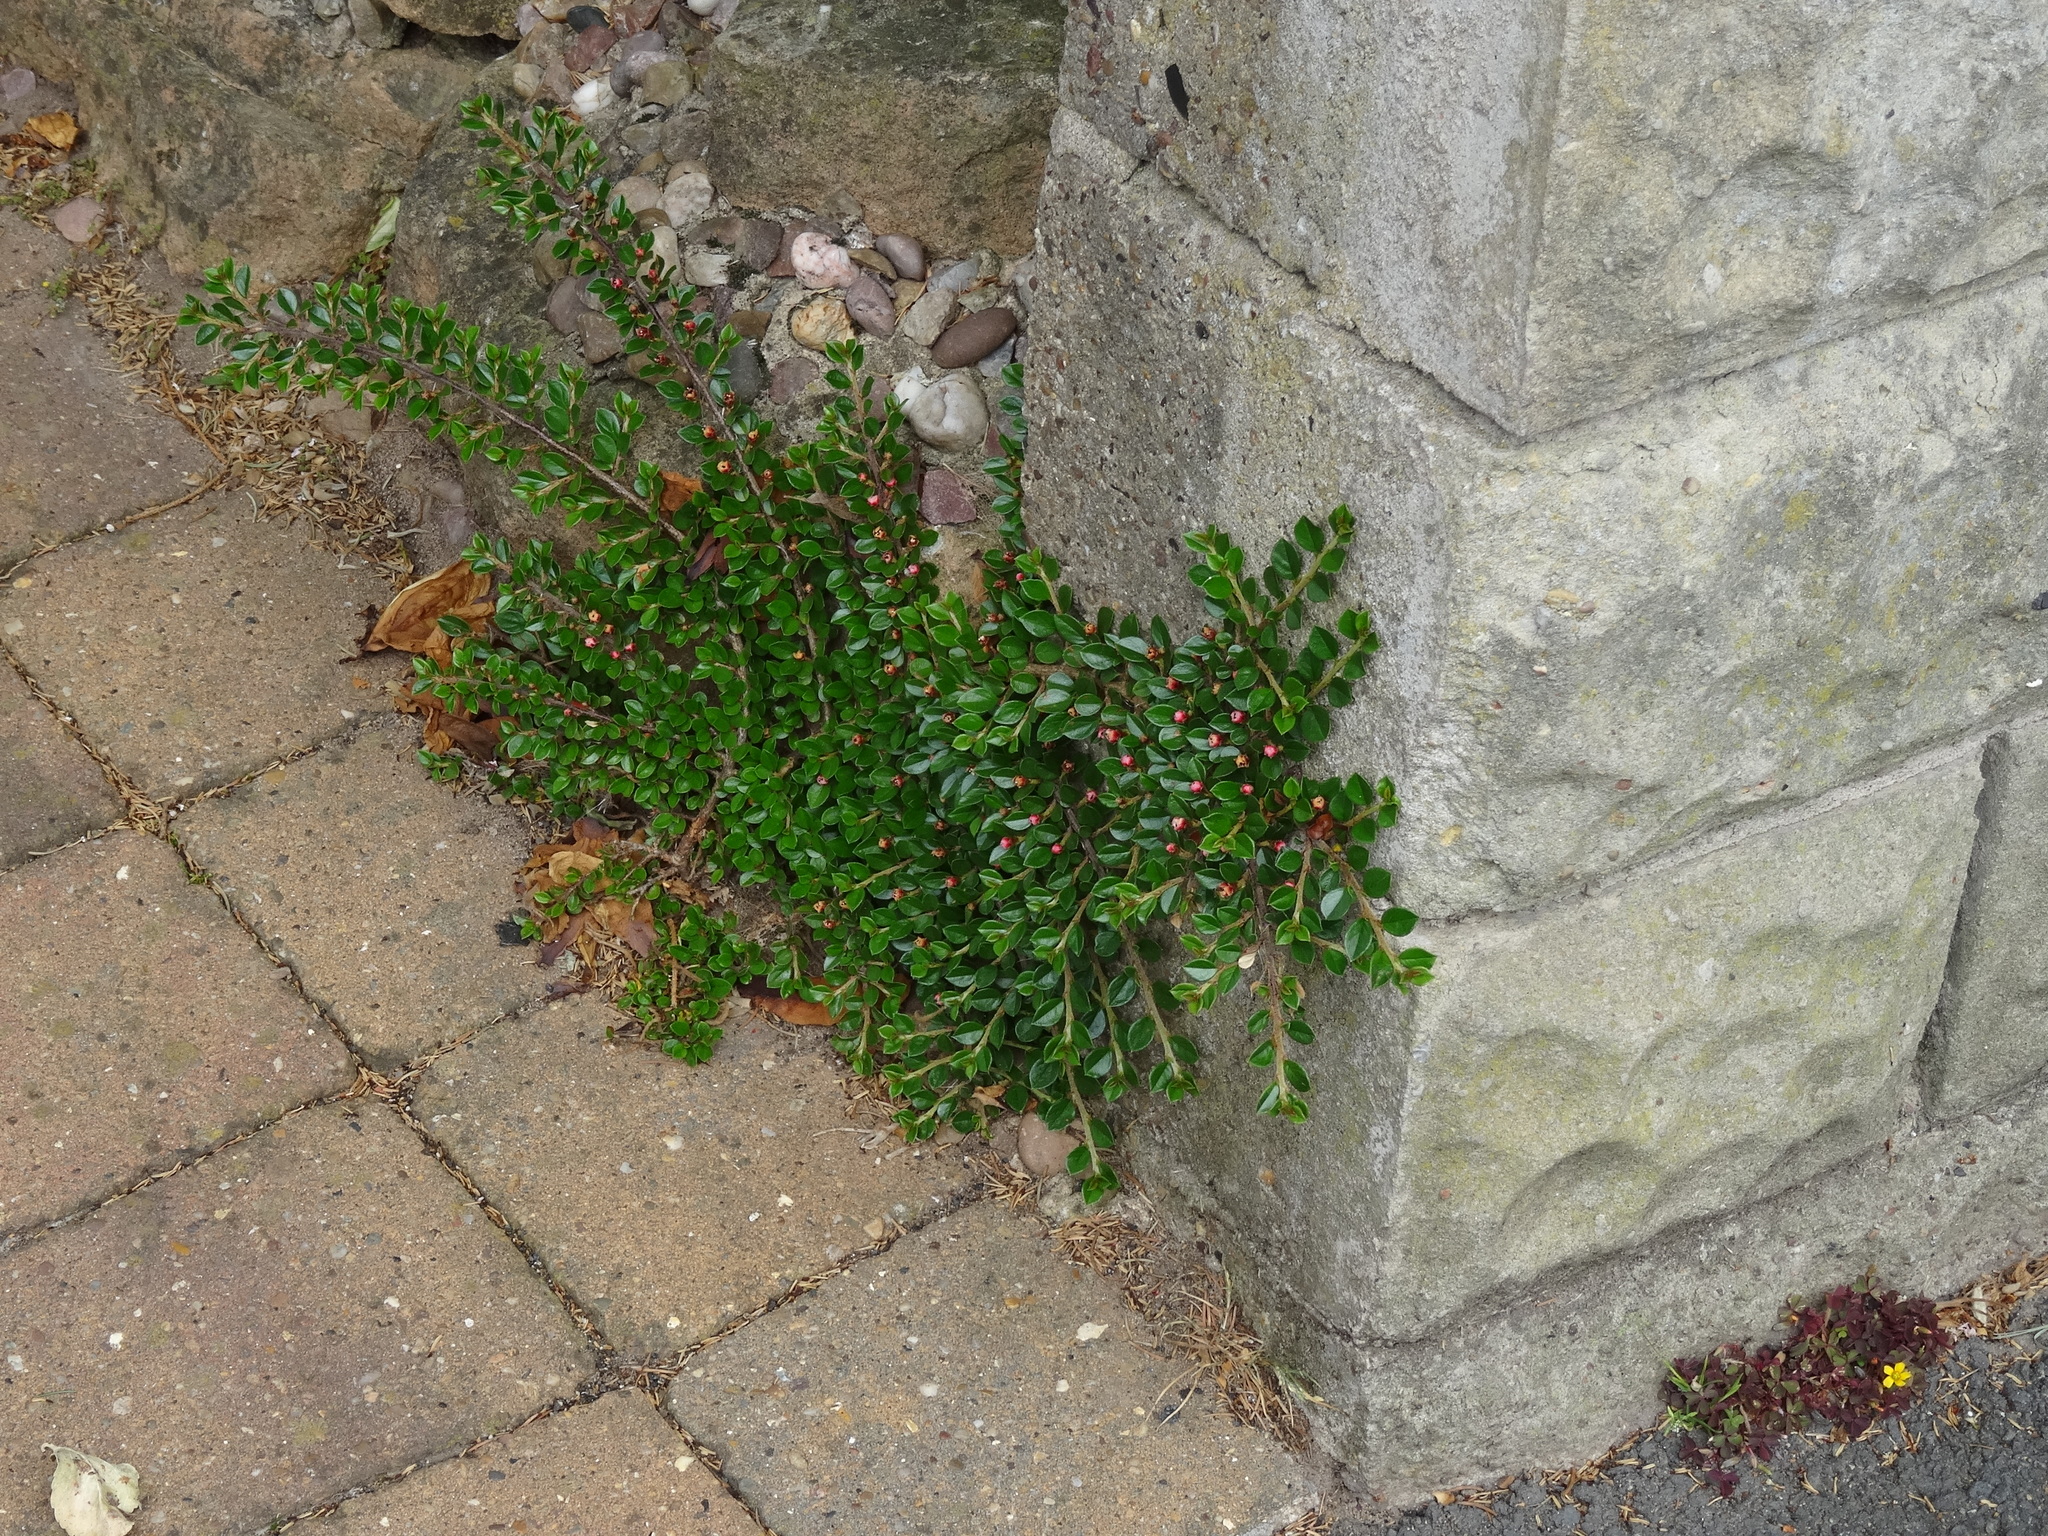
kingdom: Plantae
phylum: Tracheophyta
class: Magnoliopsida
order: Rosales
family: Rosaceae
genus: Cotoneaster
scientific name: Cotoneaster horizontalis
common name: Wall cotoneaster
